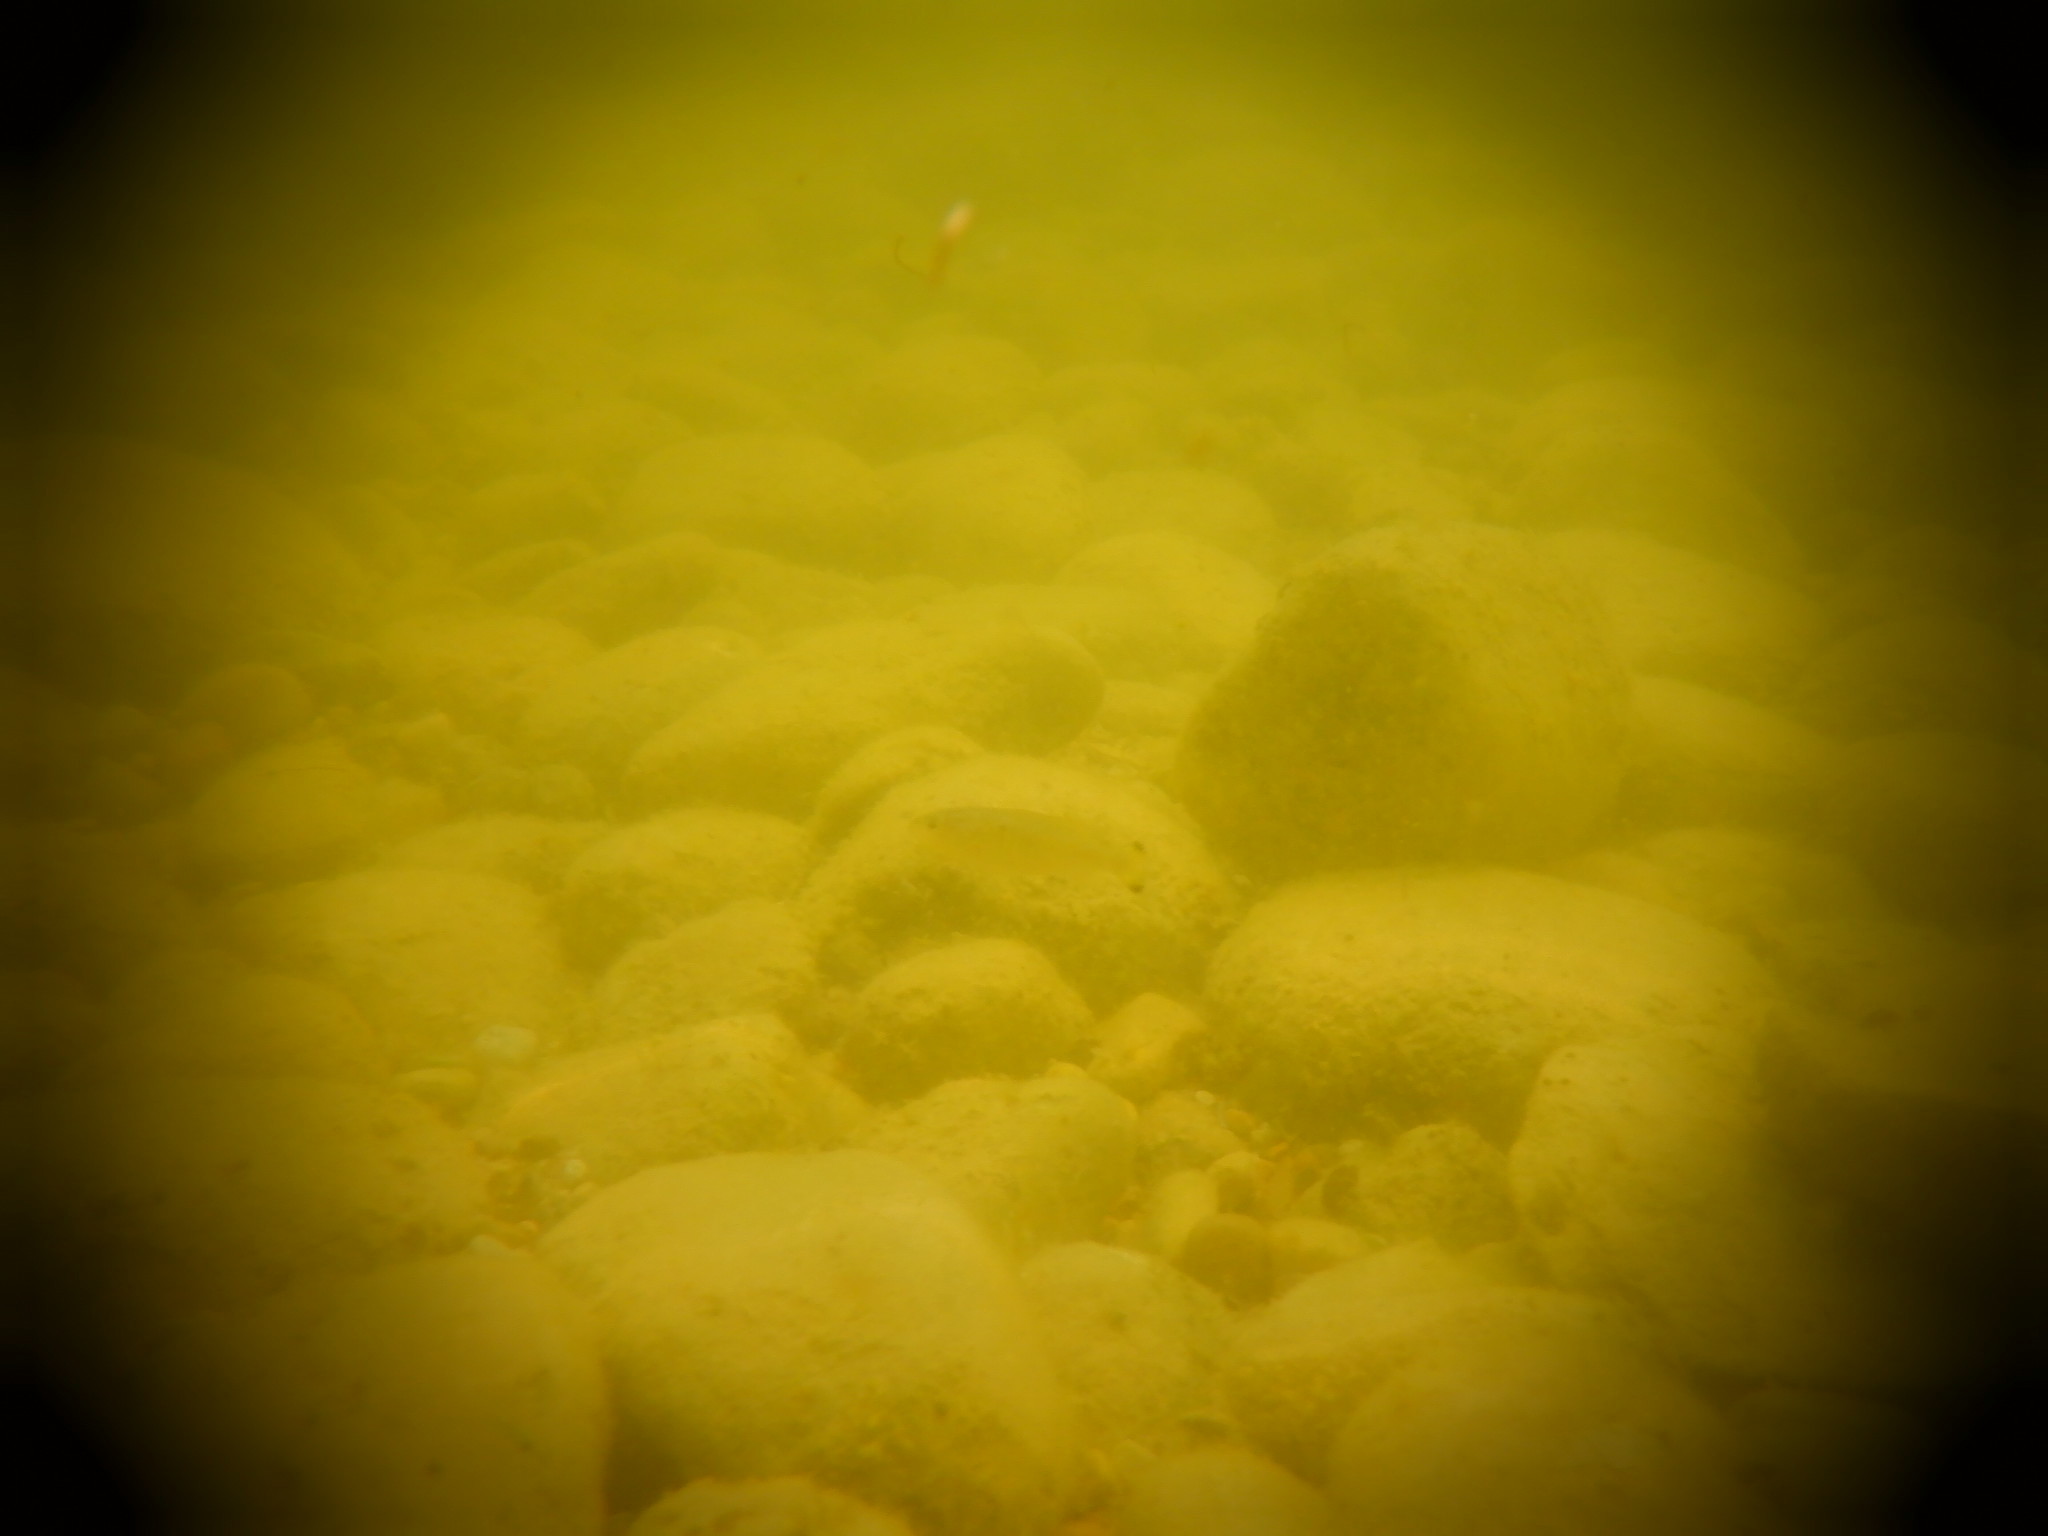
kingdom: Animalia
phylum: Chordata
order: Perciformes
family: Centrarchidae
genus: Micropterus
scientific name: Micropterus dolomieu
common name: Smallmouth bass
